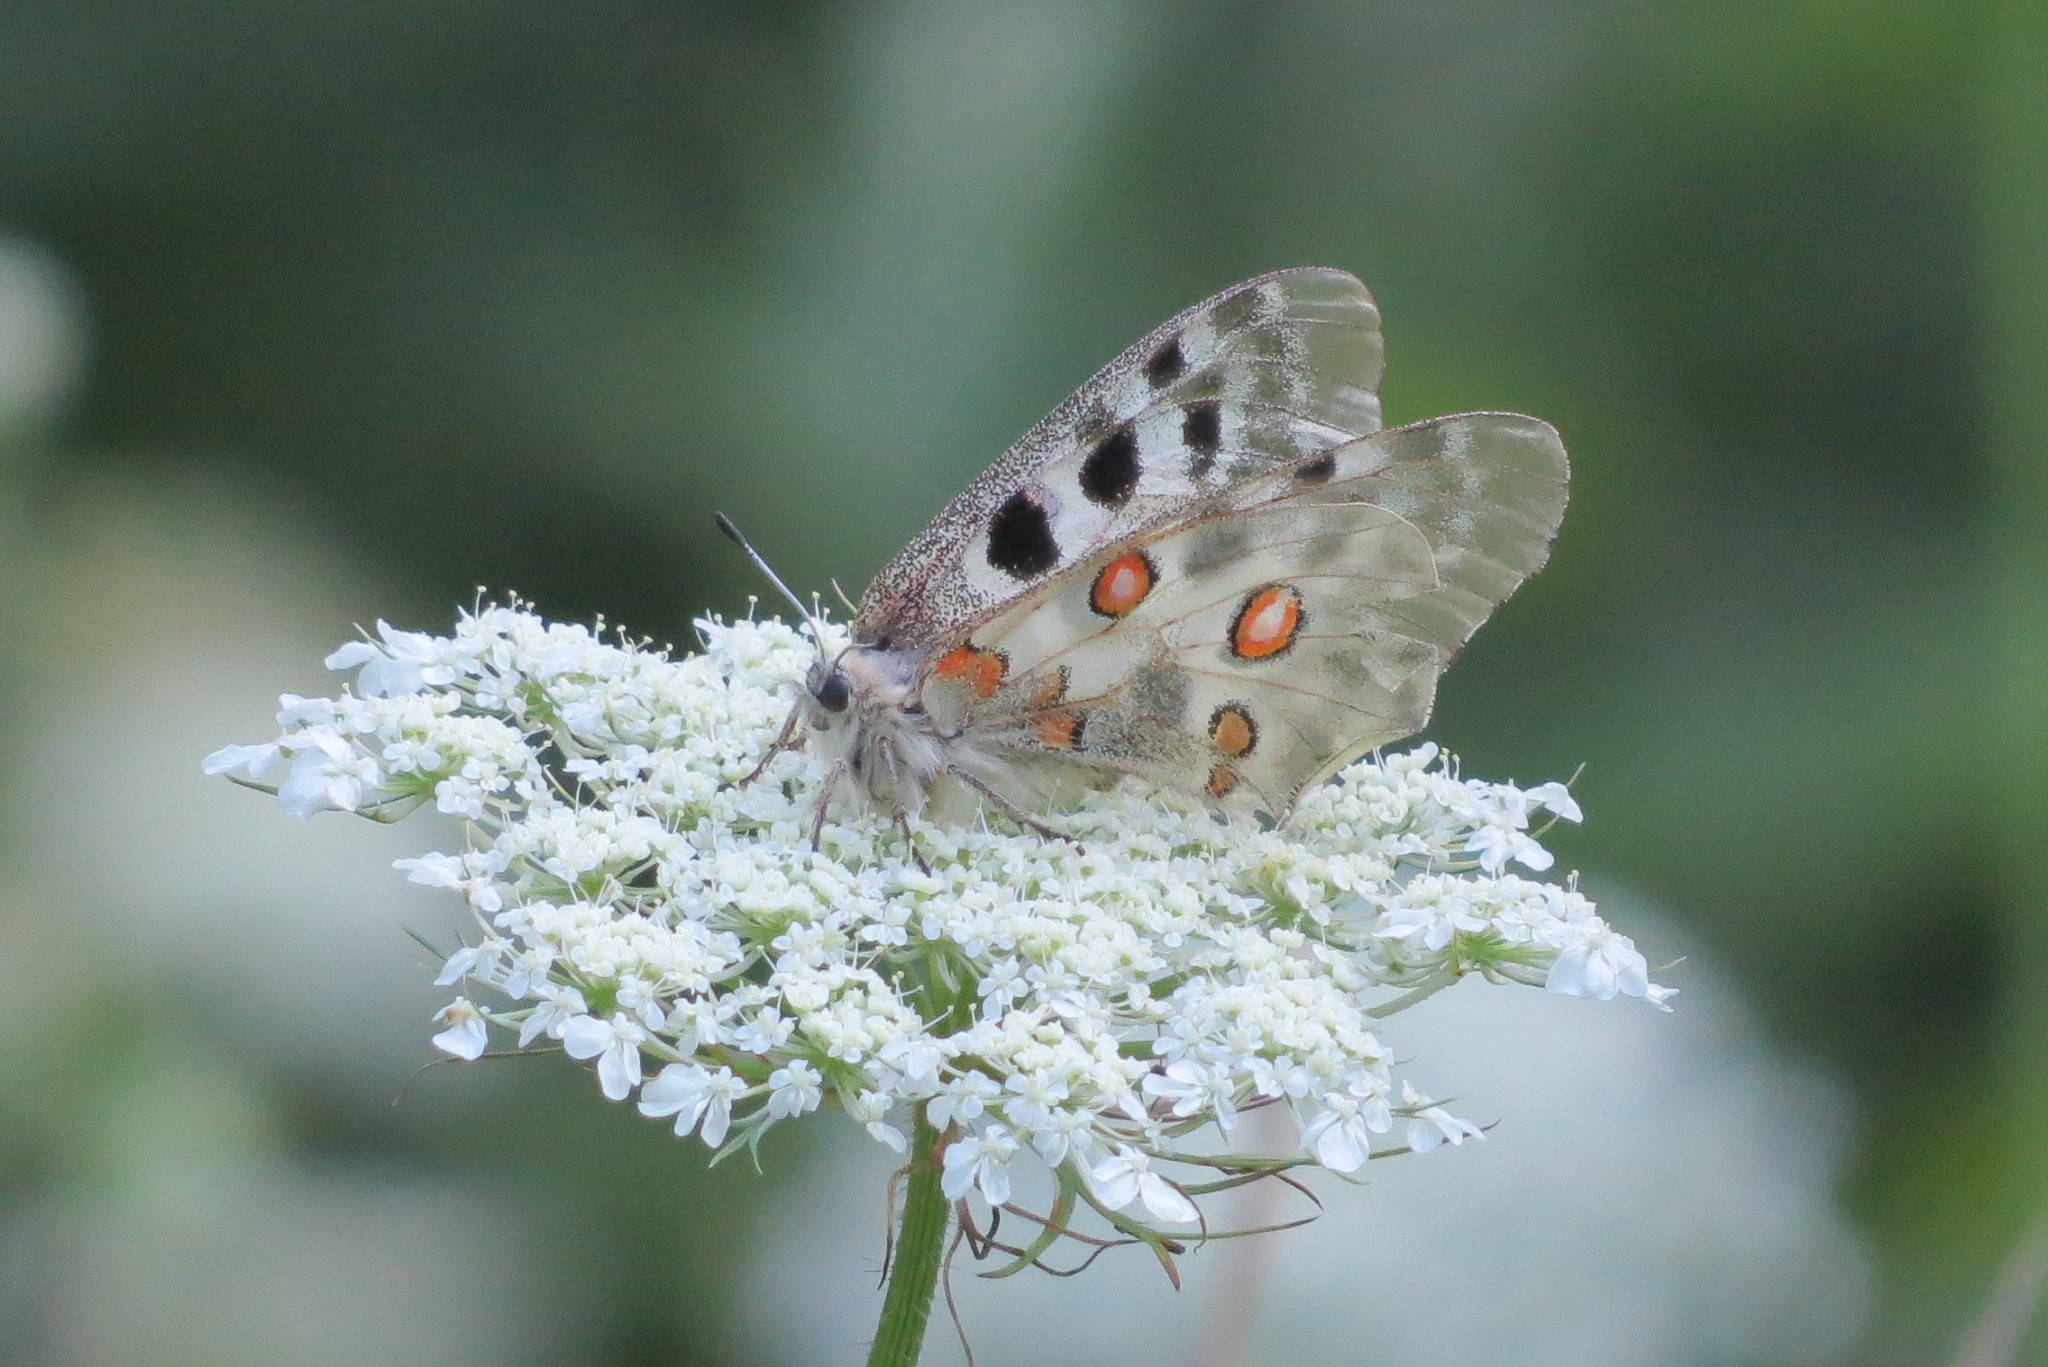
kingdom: Animalia
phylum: Arthropoda
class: Insecta
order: Lepidoptera
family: Papilionidae
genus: Parnassius
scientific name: Parnassius apollo
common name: Apollo
